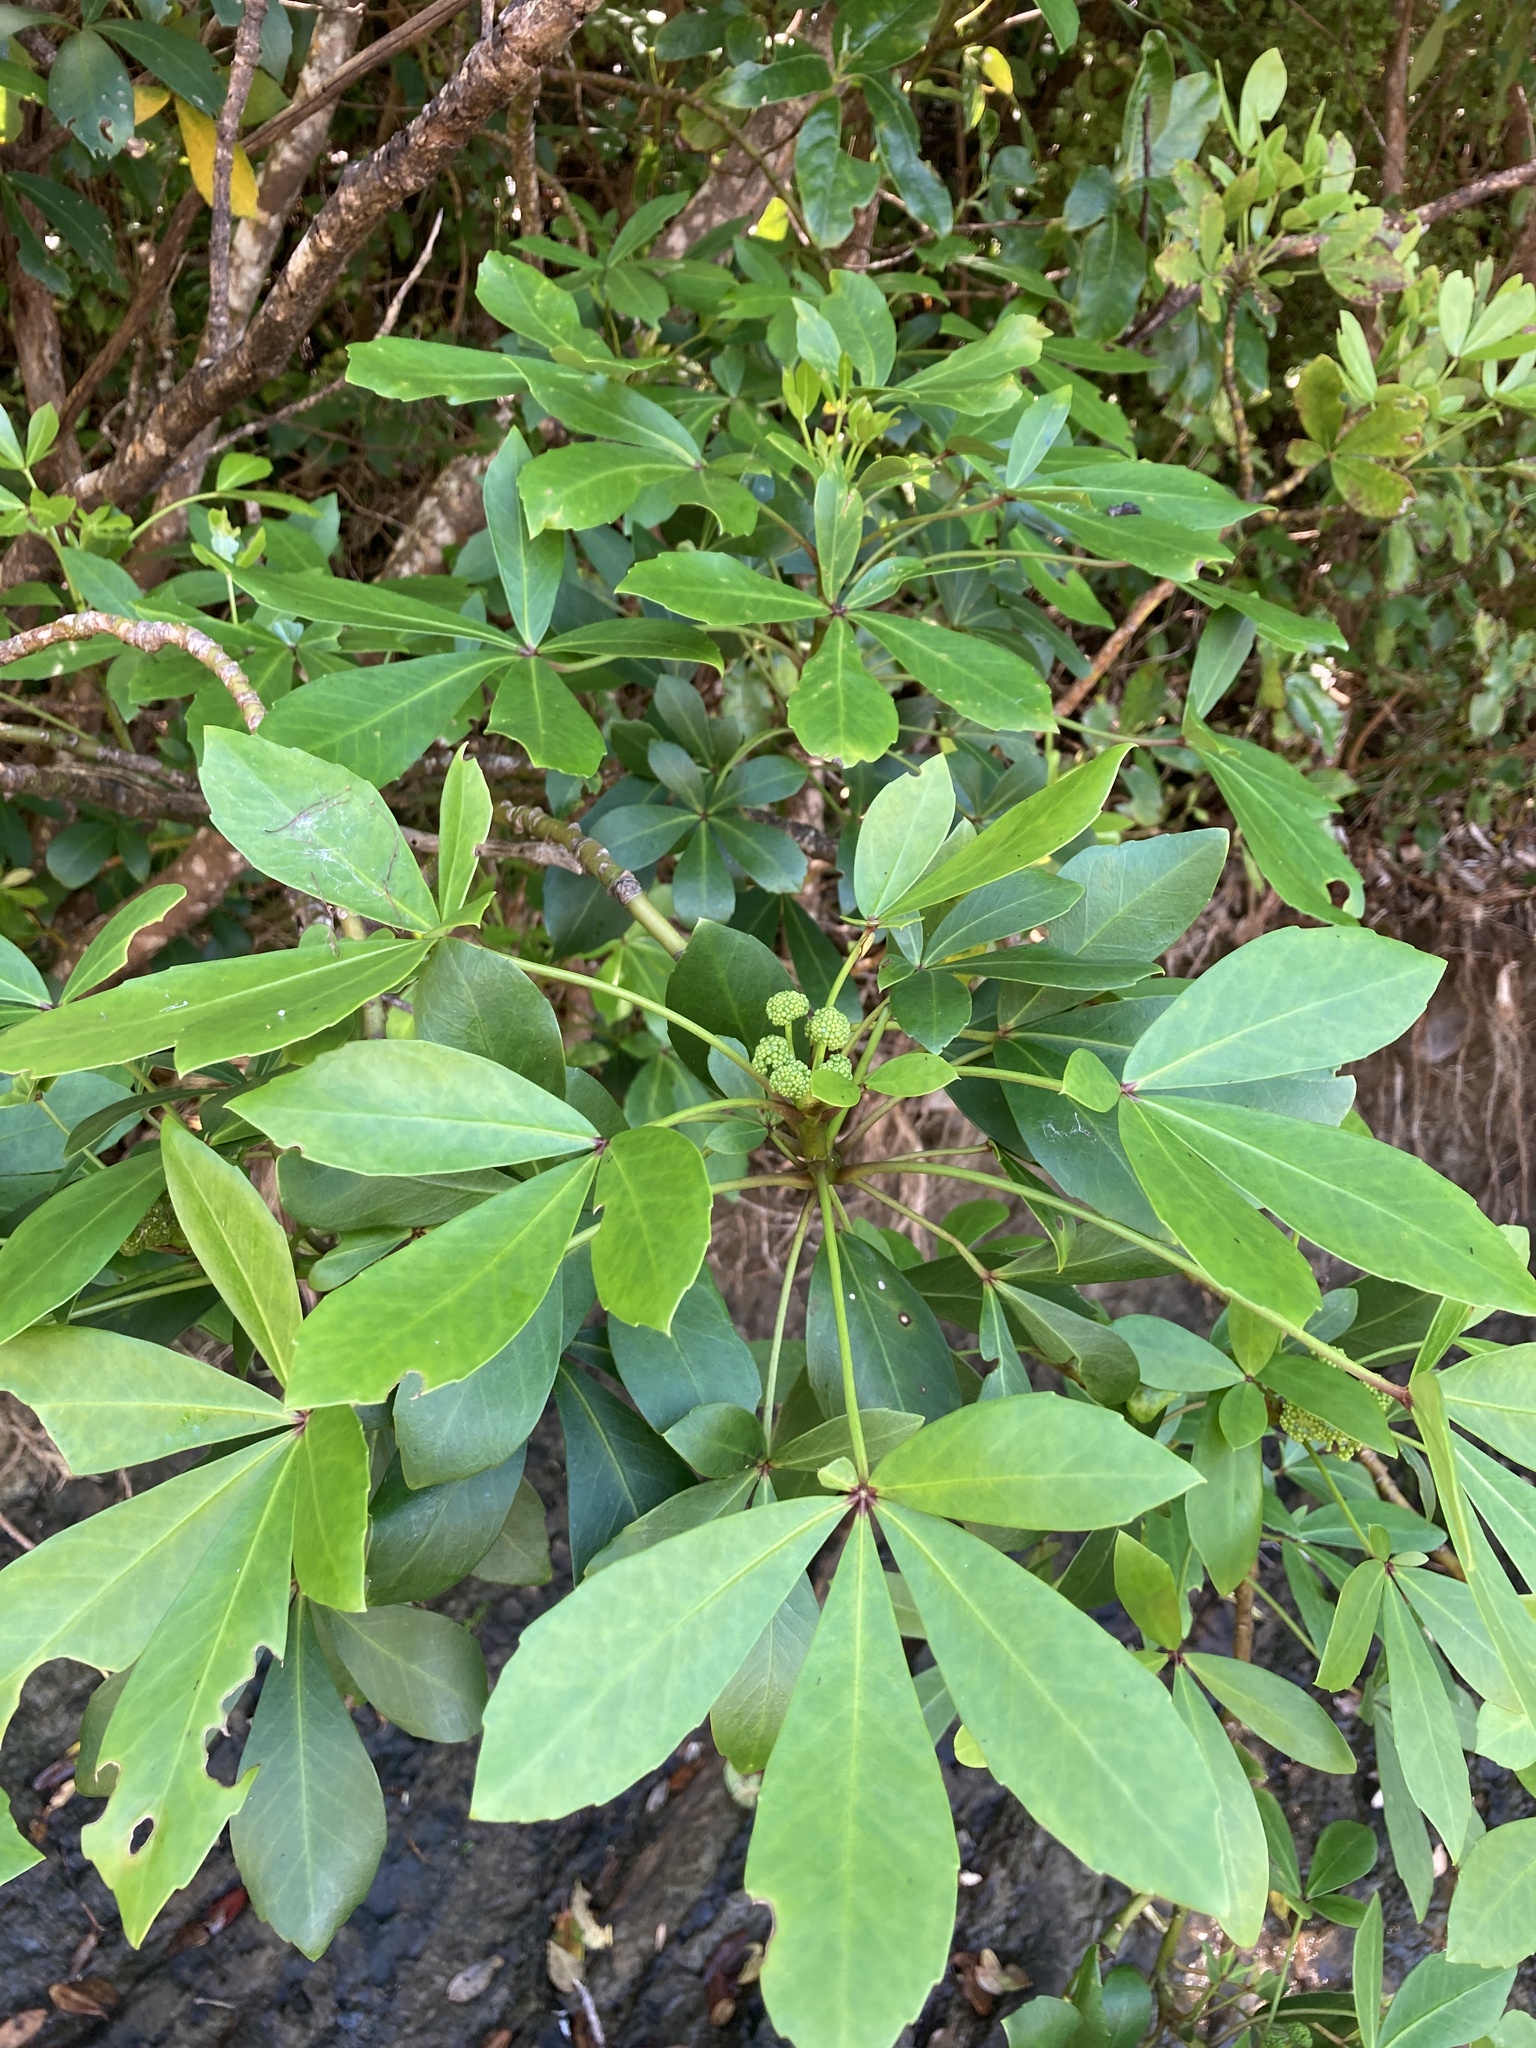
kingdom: Plantae
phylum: Tracheophyta
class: Magnoliopsida
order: Apiales
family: Araliaceae
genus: Pseudopanax
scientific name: Pseudopanax lessonii
